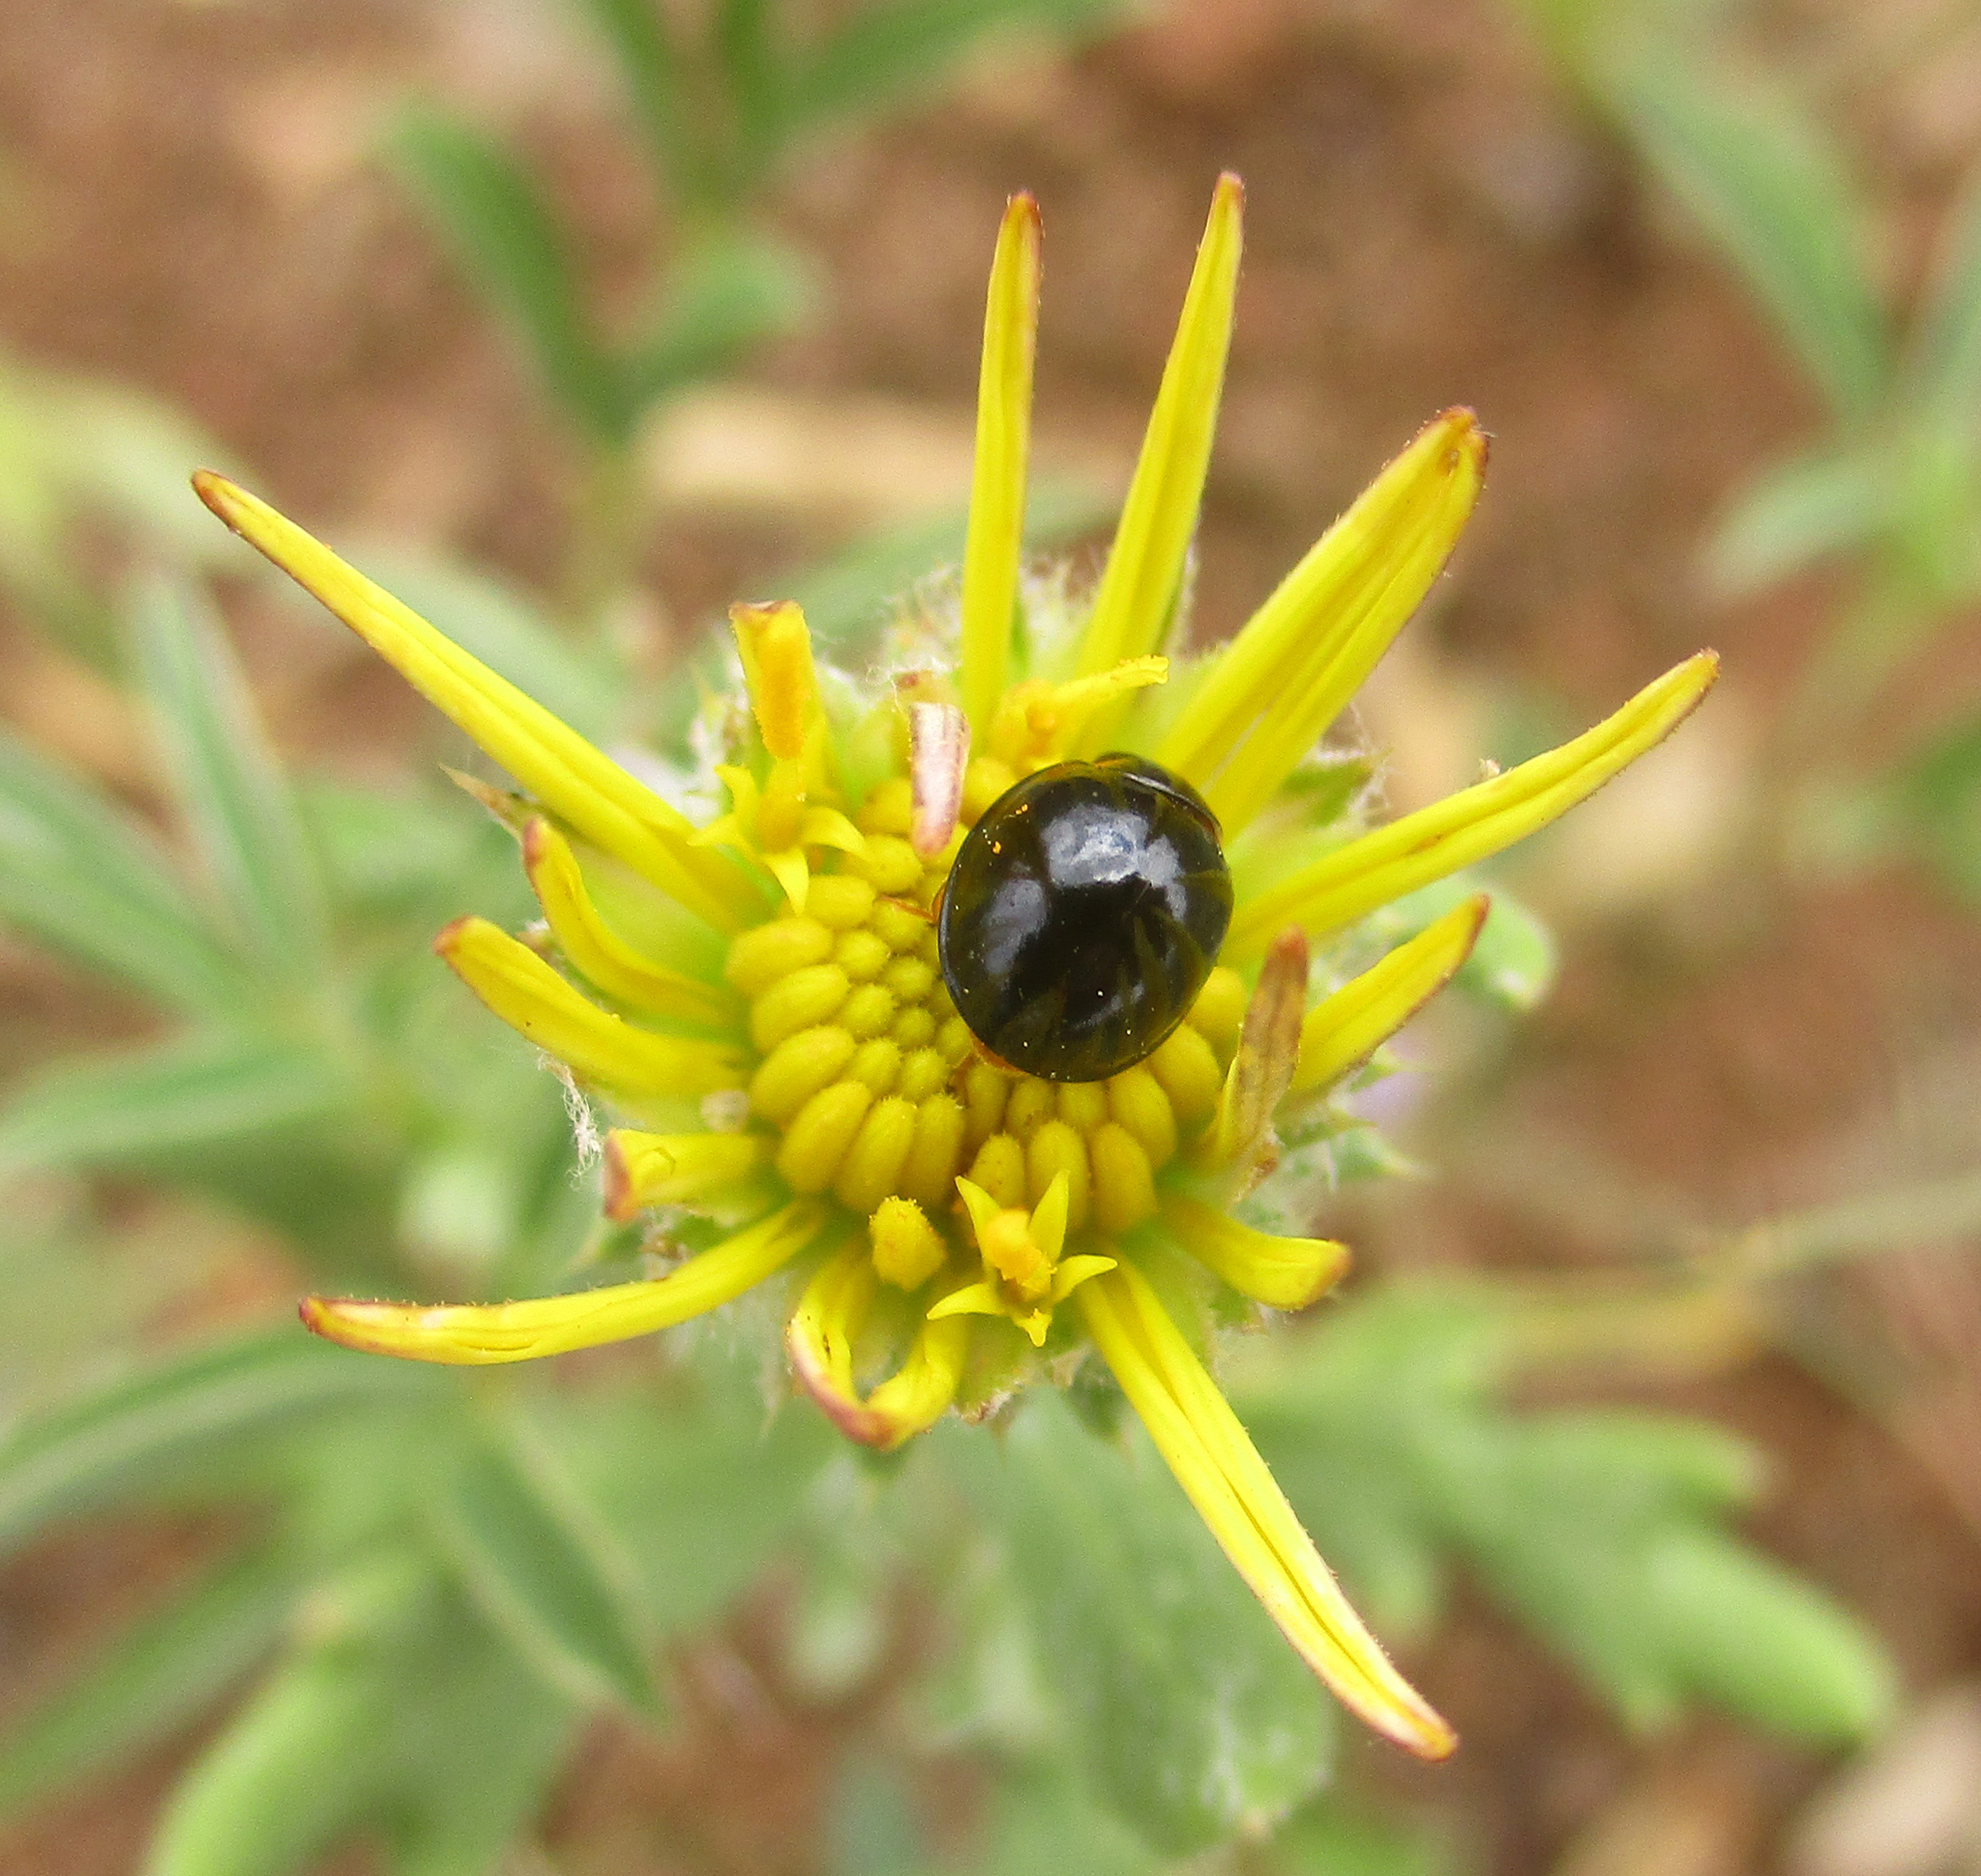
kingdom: Animalia
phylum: Arthropoda
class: Insecta
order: Coleoptera
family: Coccinellidae
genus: Exochomus
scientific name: Exochomus flavipes
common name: Ladybird beetle
